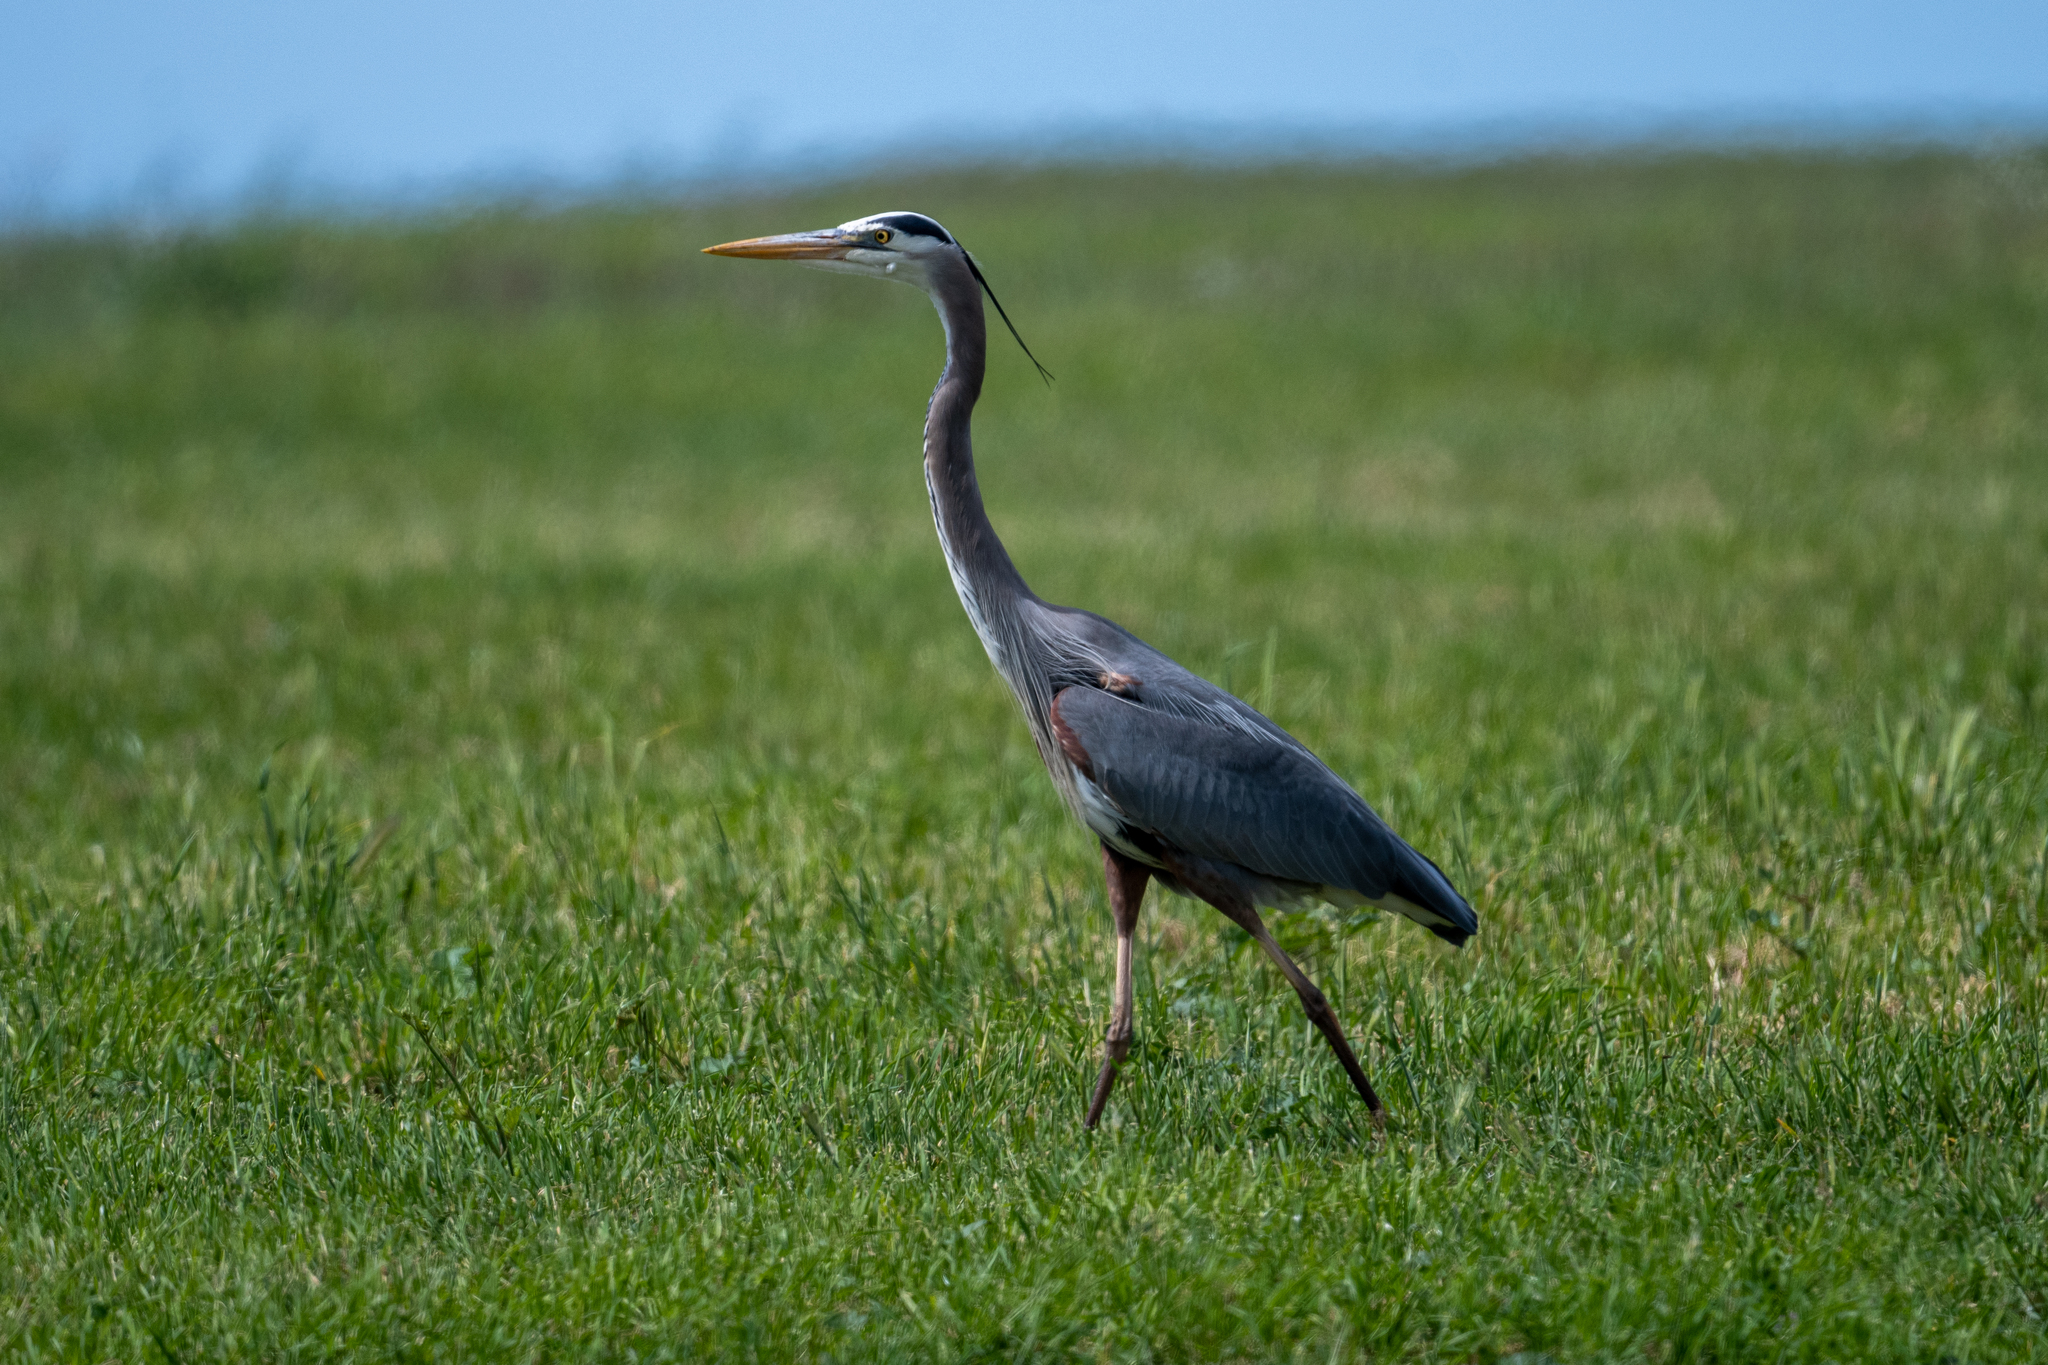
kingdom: Animalia
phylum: Chordata
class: Aves
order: Pelecaniformes
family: Ardeidae
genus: Ardea
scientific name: Ardea herodias
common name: Great blue heron
